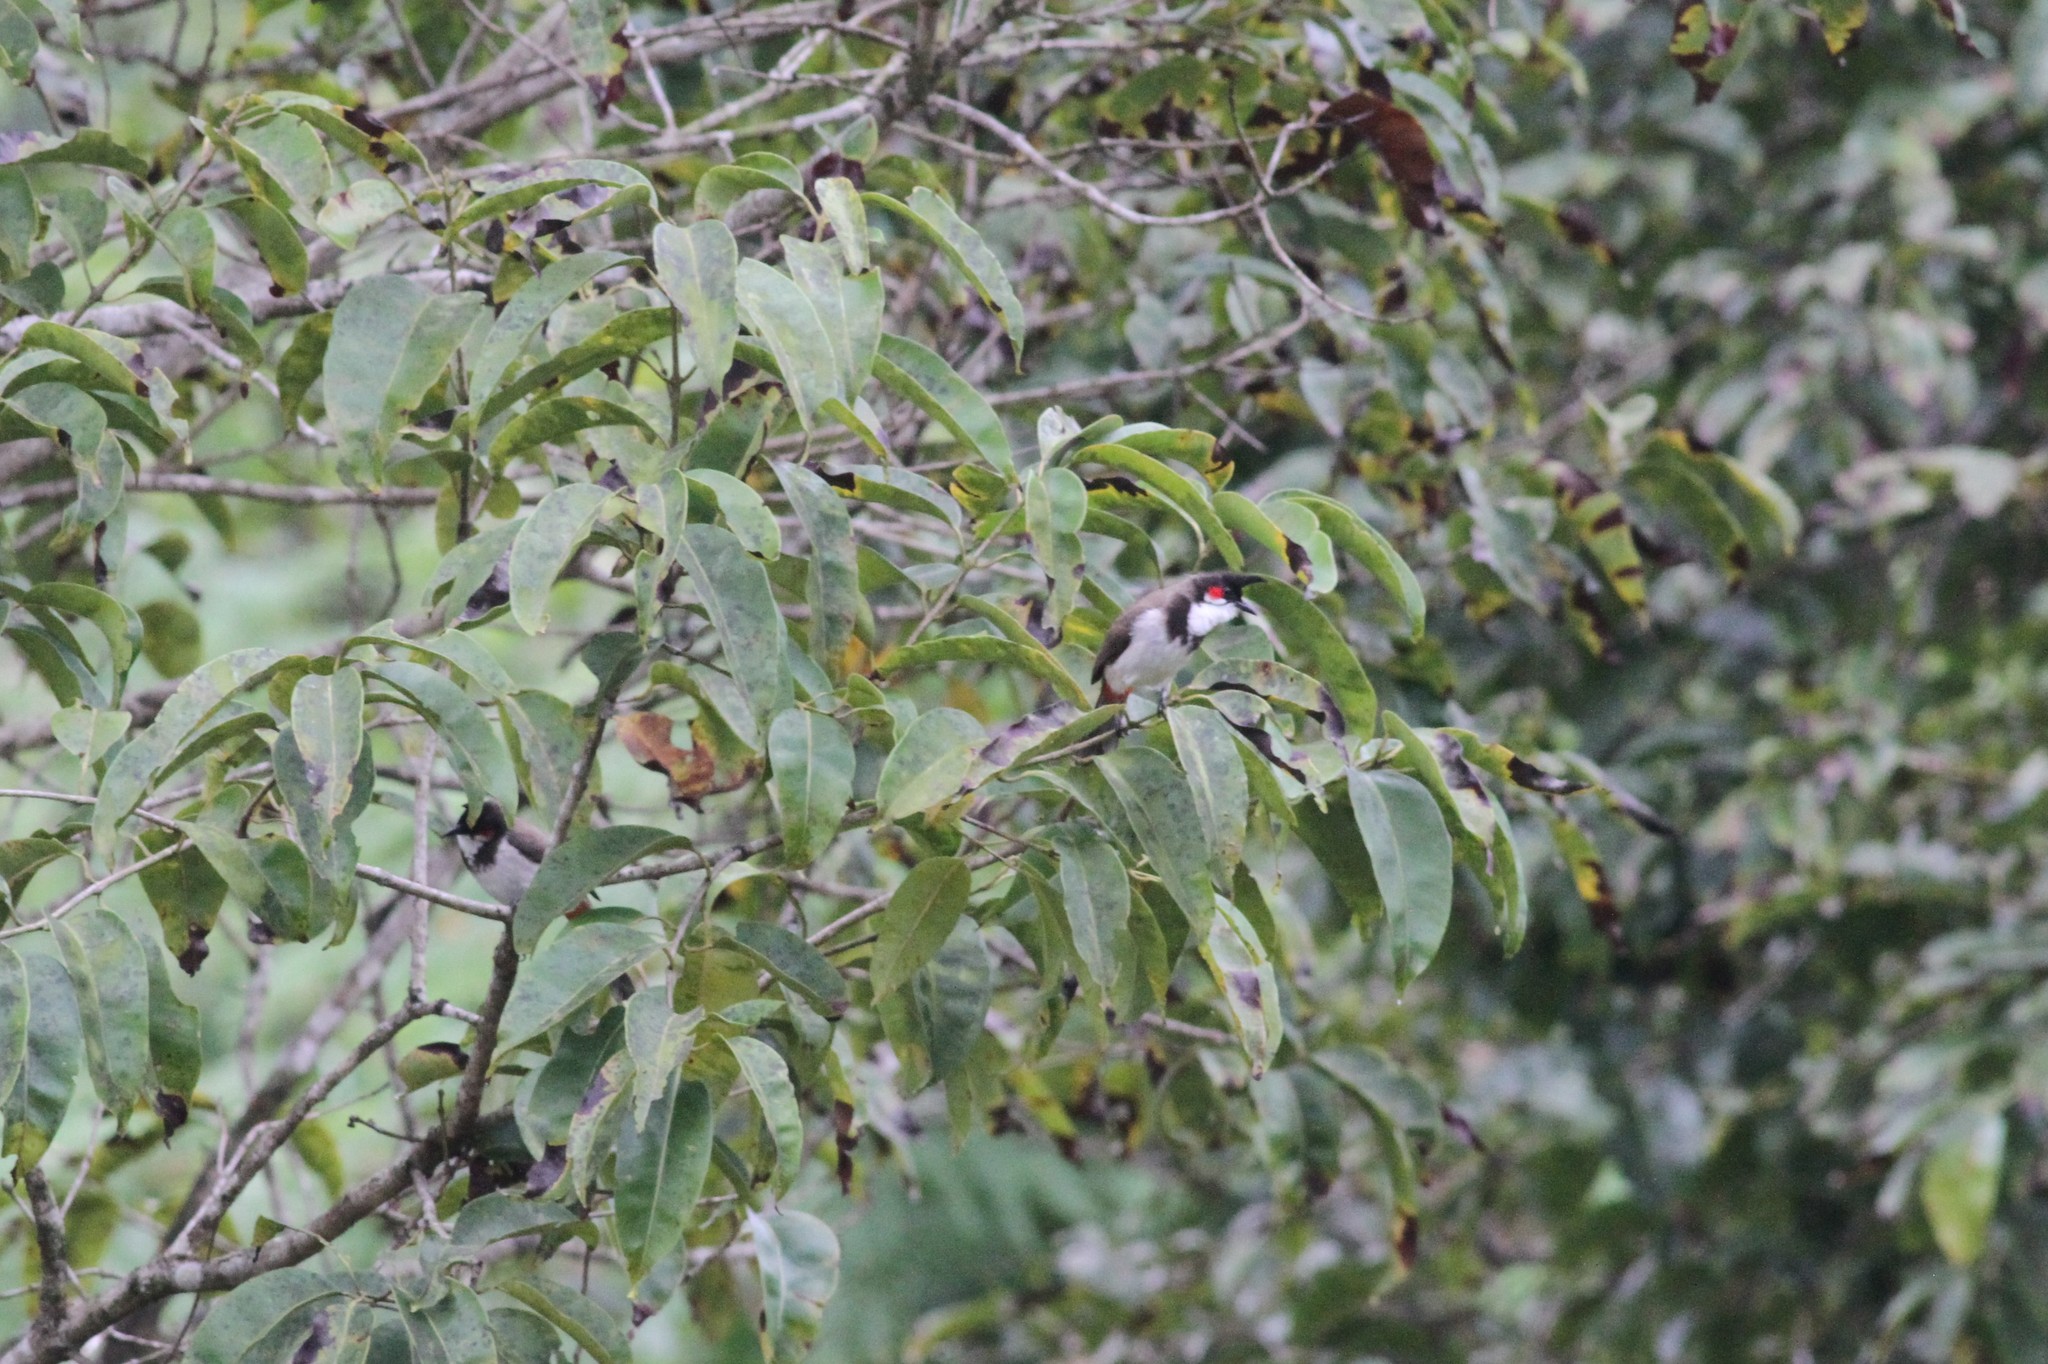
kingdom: Animalia
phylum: Chordata
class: Aves
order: Passeriformes
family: Pycnonotidae
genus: Pycnonotus
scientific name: Pycnonotus jocosus
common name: Red-whiskered bulbul
